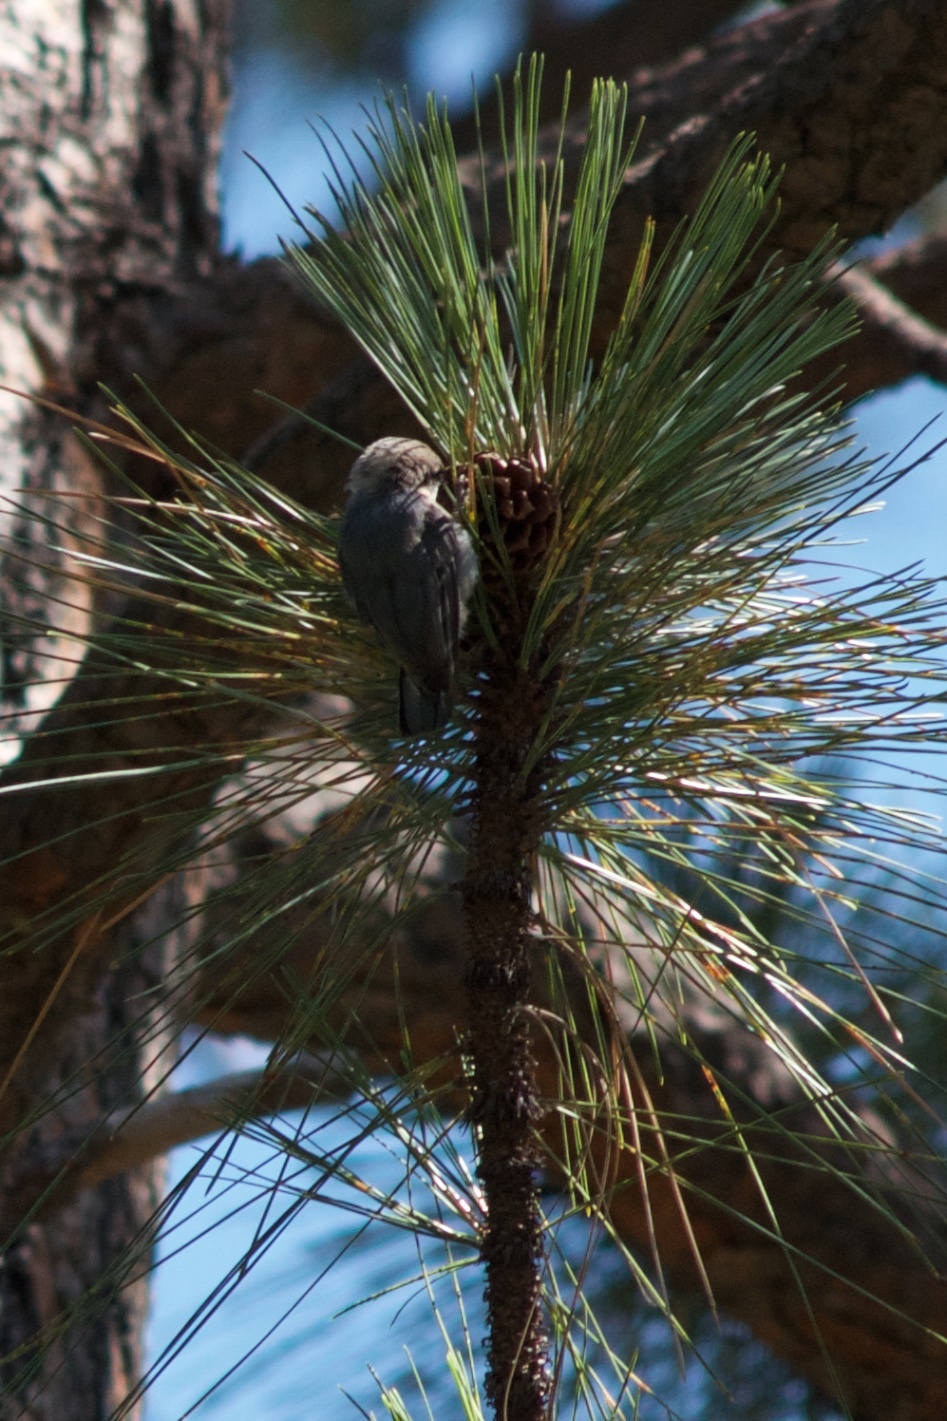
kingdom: Animalia
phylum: Chordata
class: Aves
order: Passeriformes
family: Sittidae
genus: Sitta
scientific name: Sitta pygmaea
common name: Pygmy nuthatch
